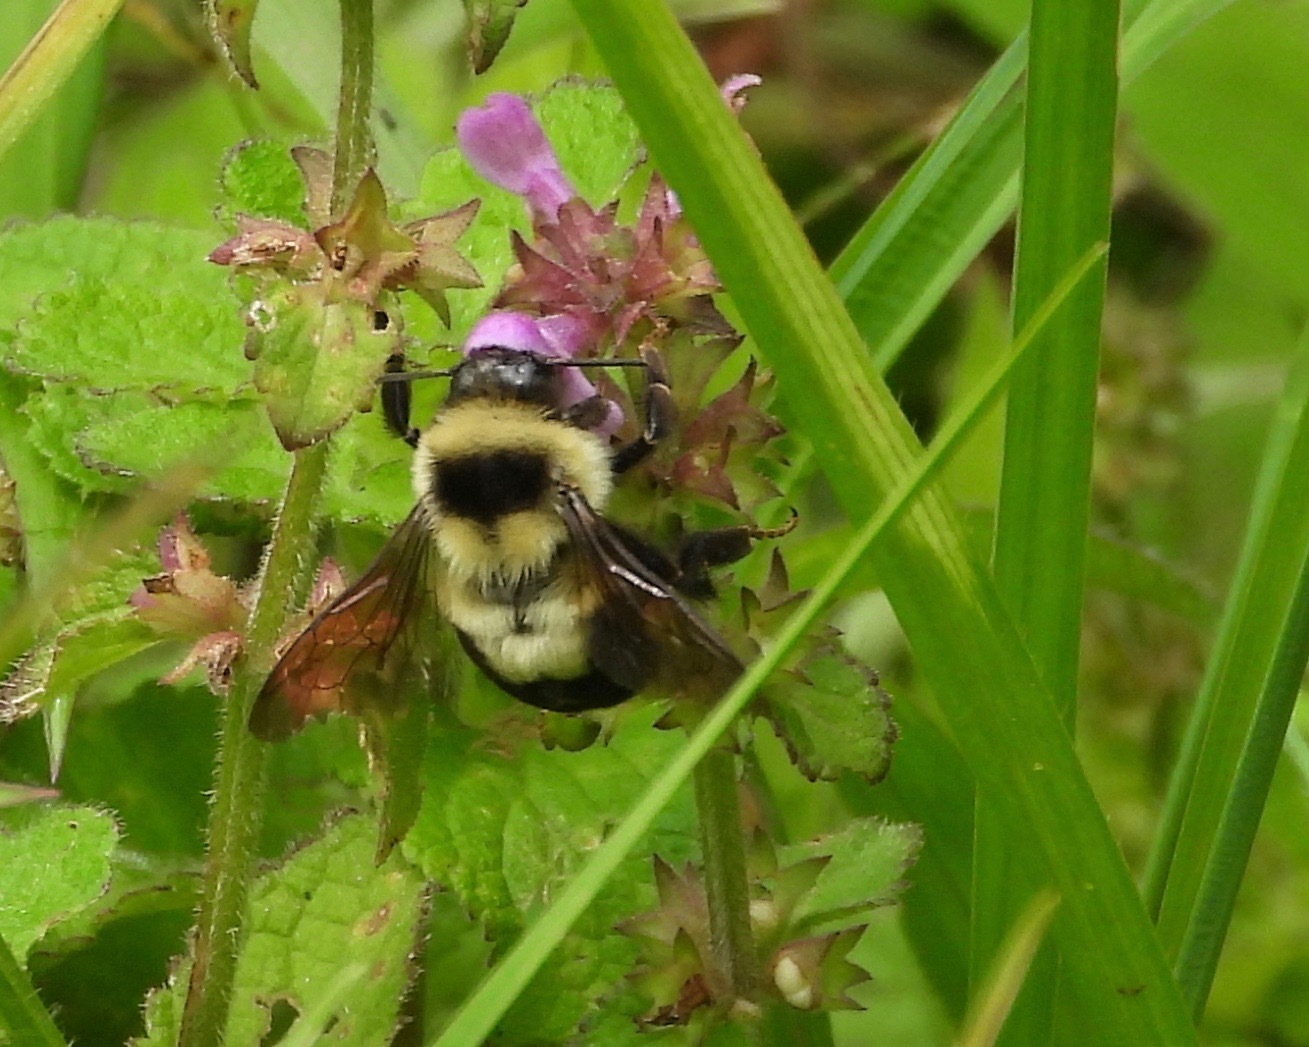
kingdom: Animalia
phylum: Arthropoda
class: Insecta
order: Hymenoptera
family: Apidae
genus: Bombus
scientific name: Bombus wilmattae
